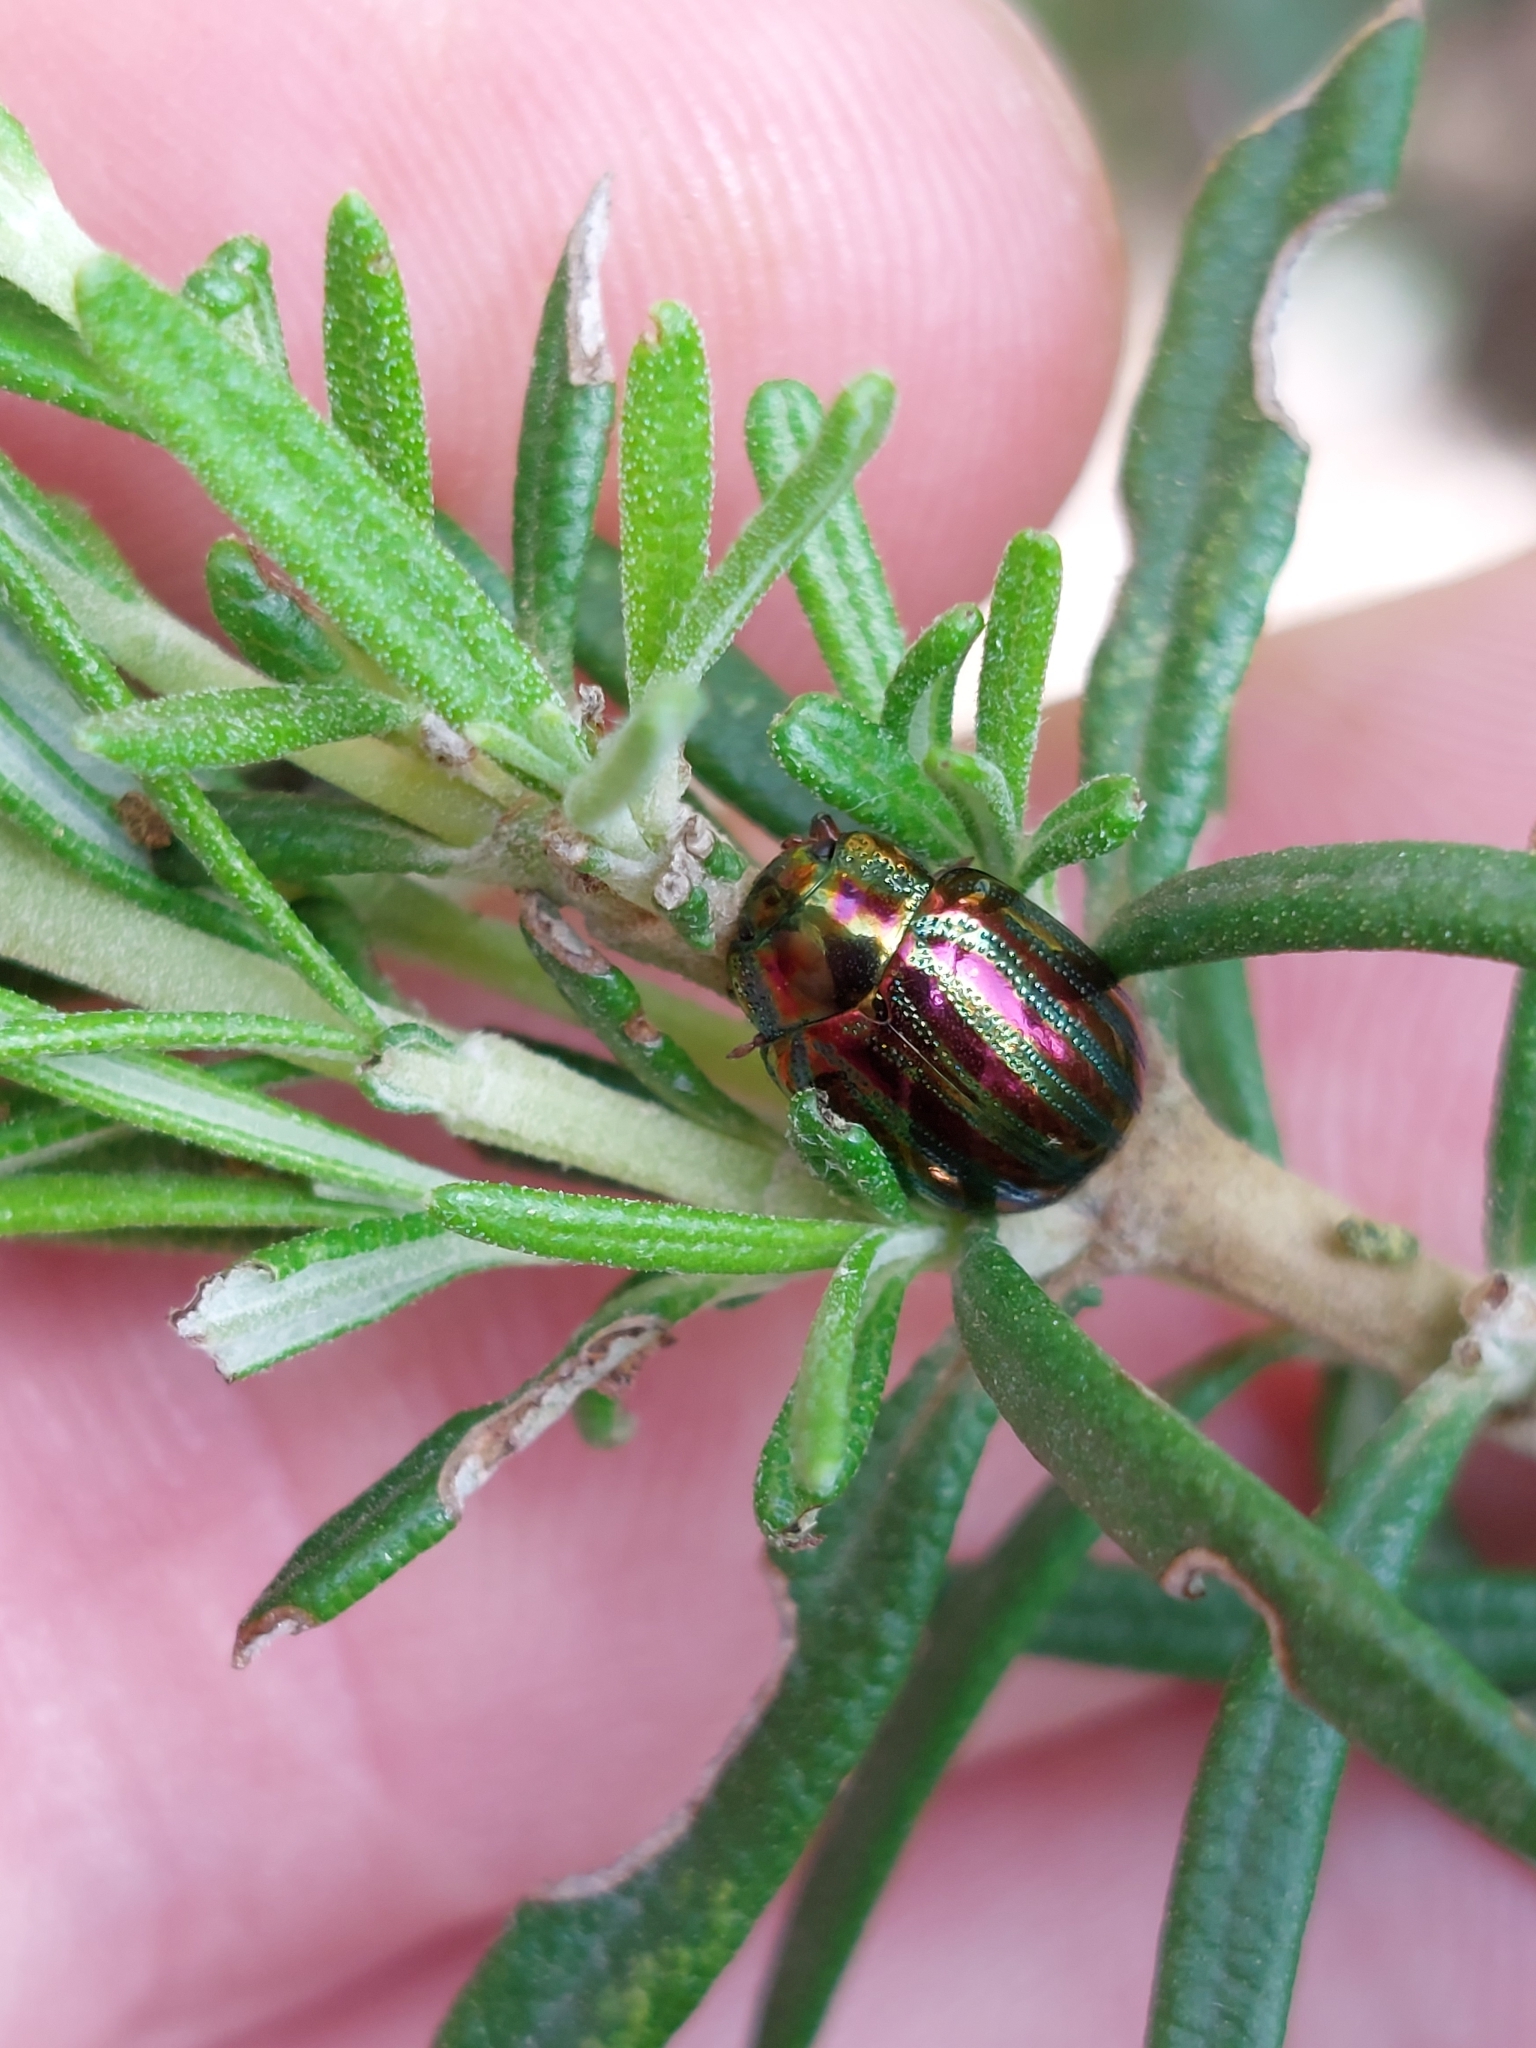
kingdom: Animalia
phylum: Arthropoda
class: Insecta
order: Coleoptera
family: Chrysomelidae
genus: Chrysolina
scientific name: Chrysolina americana
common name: Rosemary beetle
